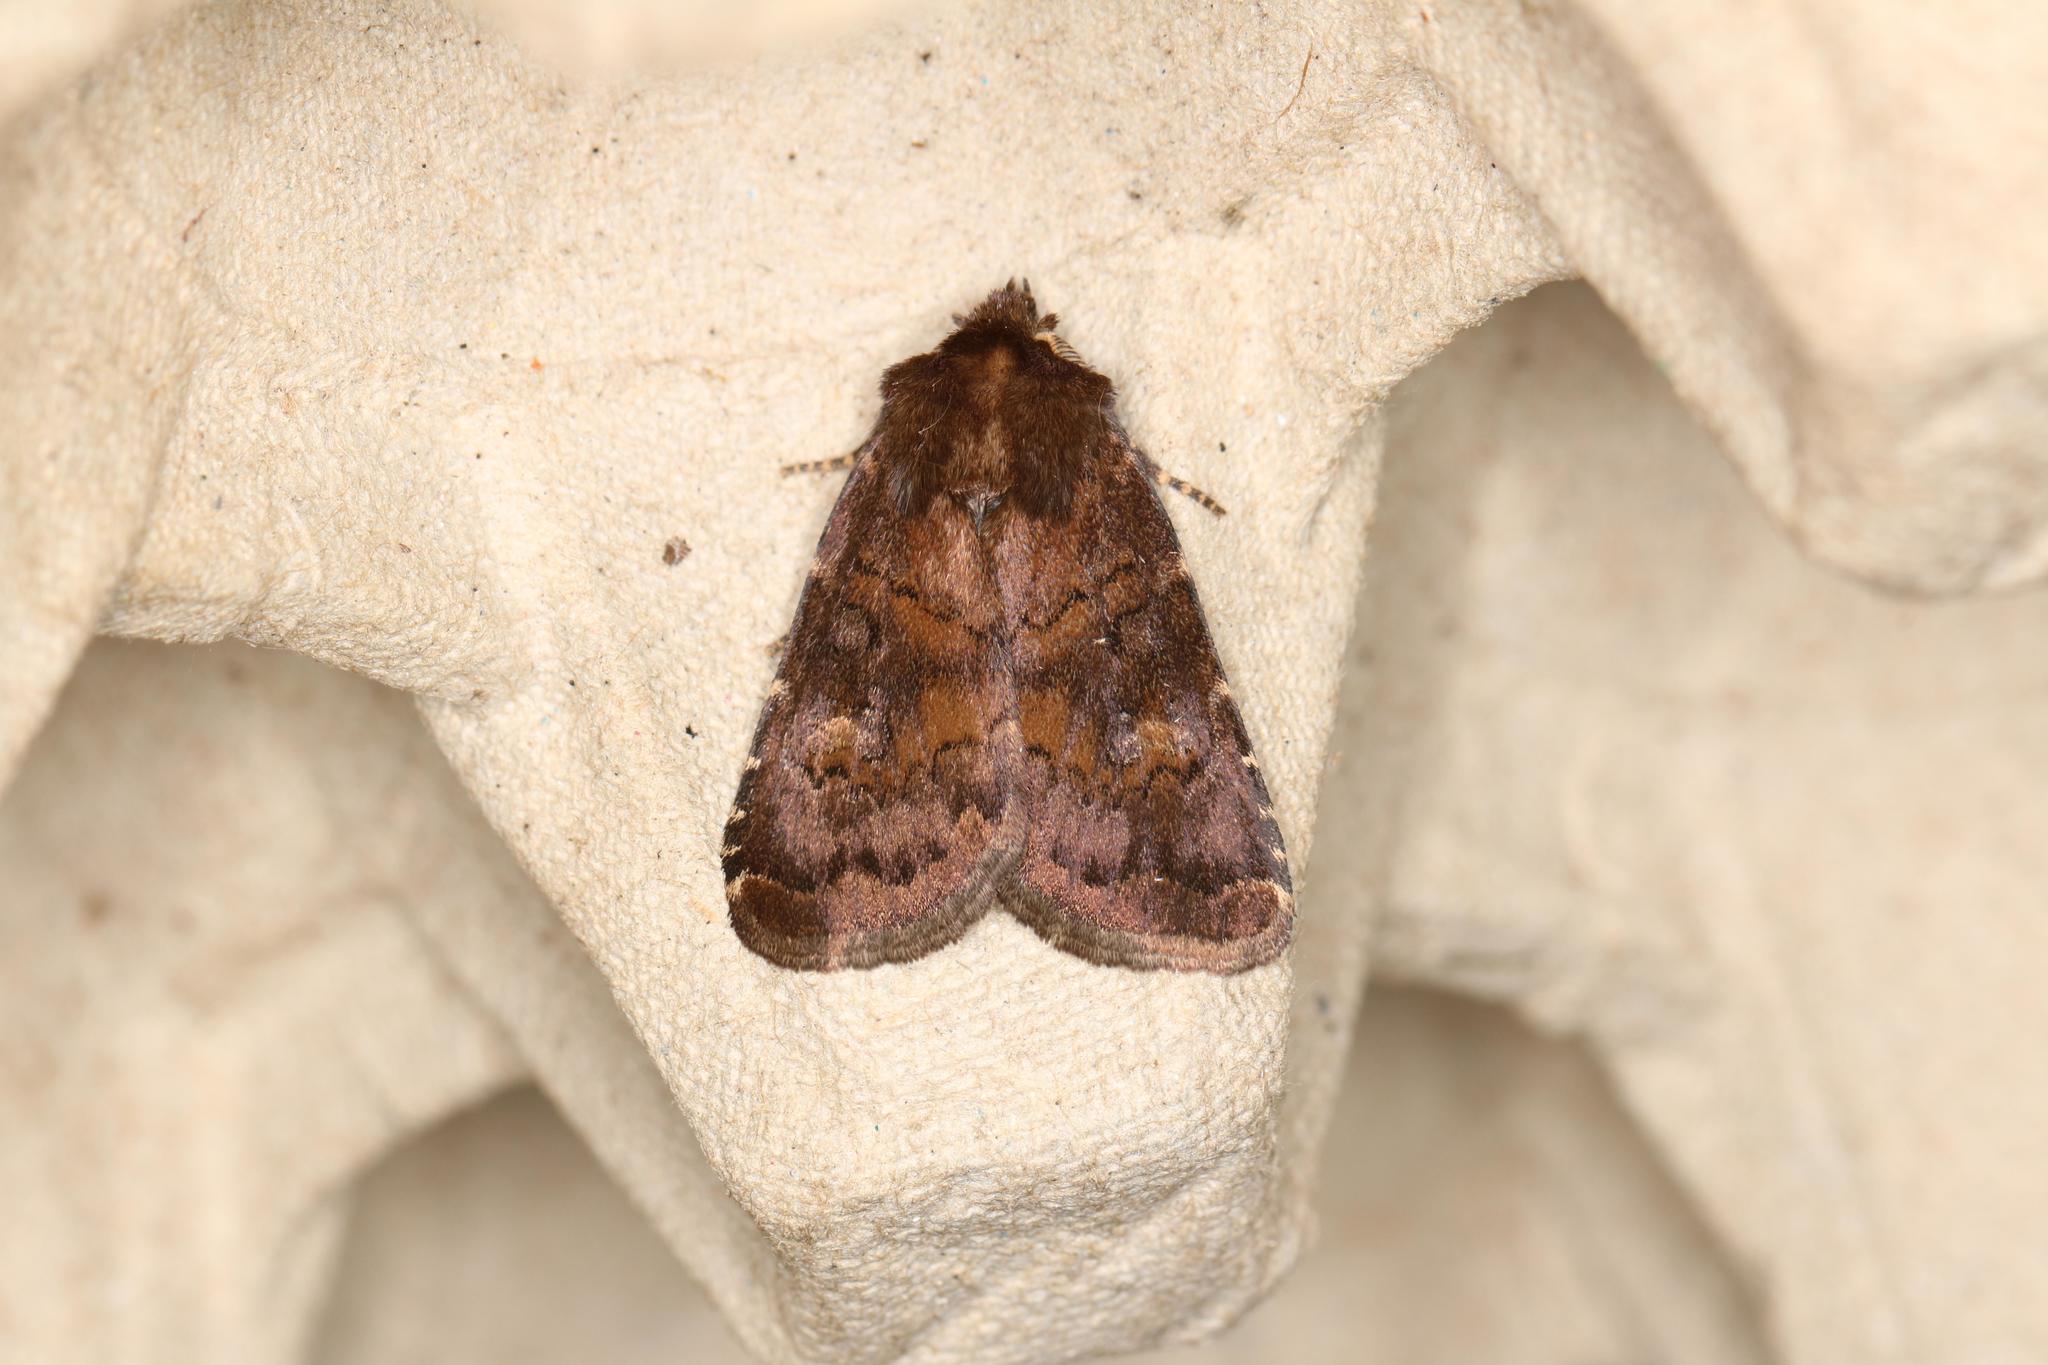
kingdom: Animalia
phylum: Arthropoda
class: Insecta
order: Lepidoptera
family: Noctuidae
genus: Charanyca
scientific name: Charanyca ferruginea
